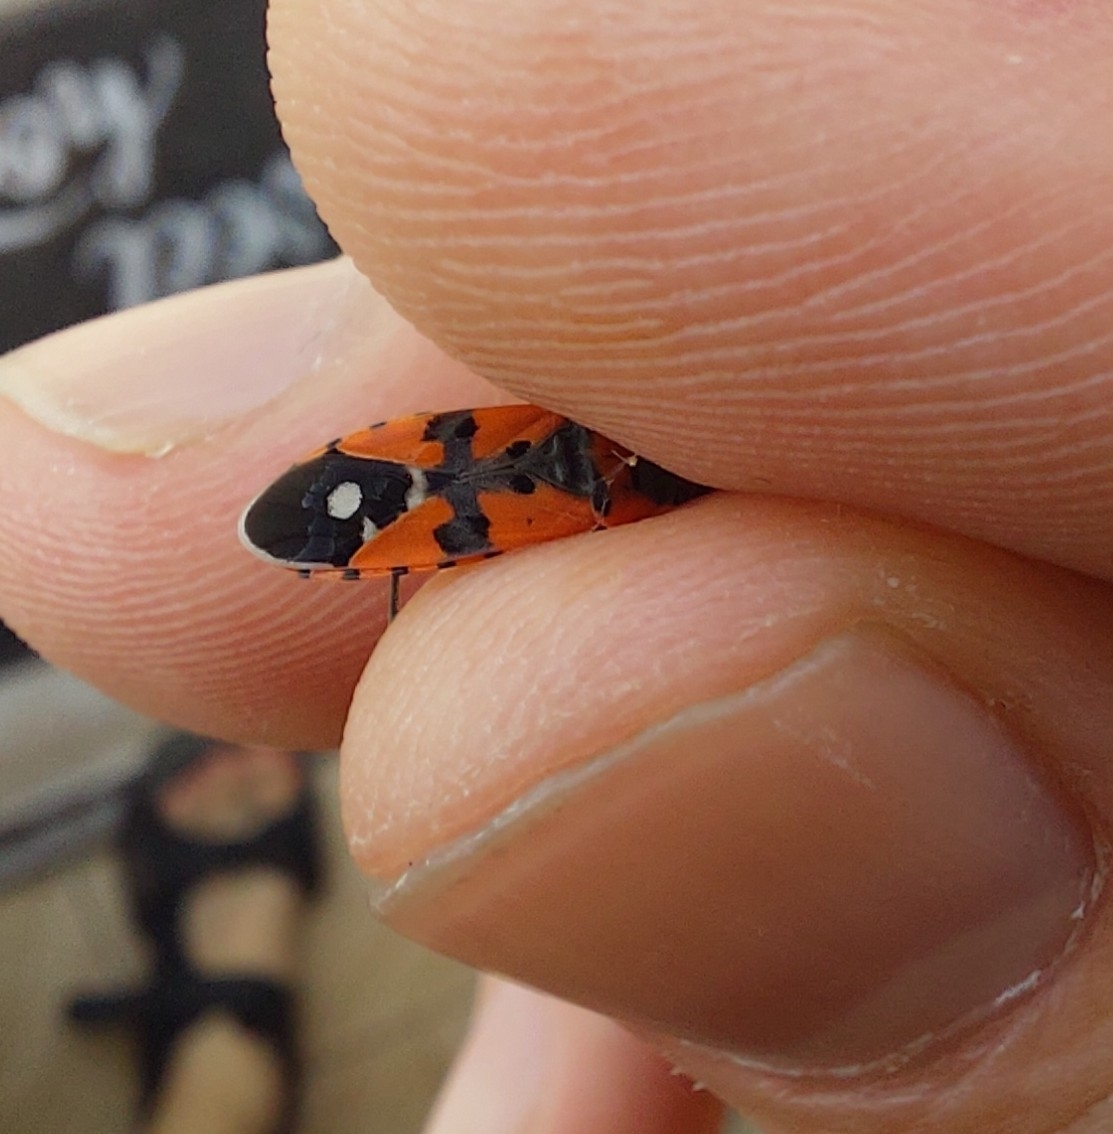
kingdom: Animalia
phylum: Arthropoda
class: Insecta
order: Hemiptera
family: Lygaeidae
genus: Lygaeus
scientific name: Lygaeus equestris
